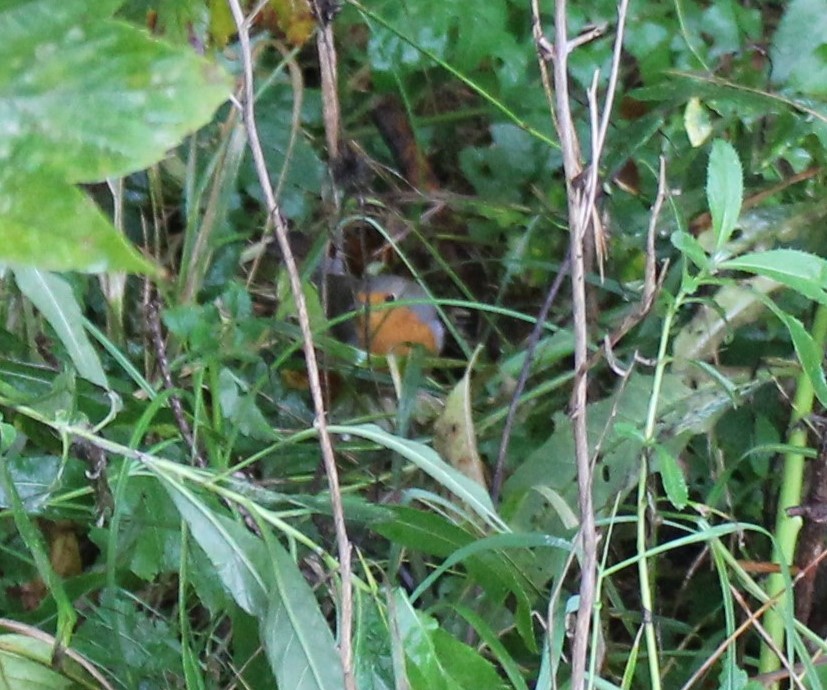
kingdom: Animalia
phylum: Chordata
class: Aves
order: Passeriformes
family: Muscicapidae
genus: Erithacus
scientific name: Erithacus rubecula
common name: European robin
